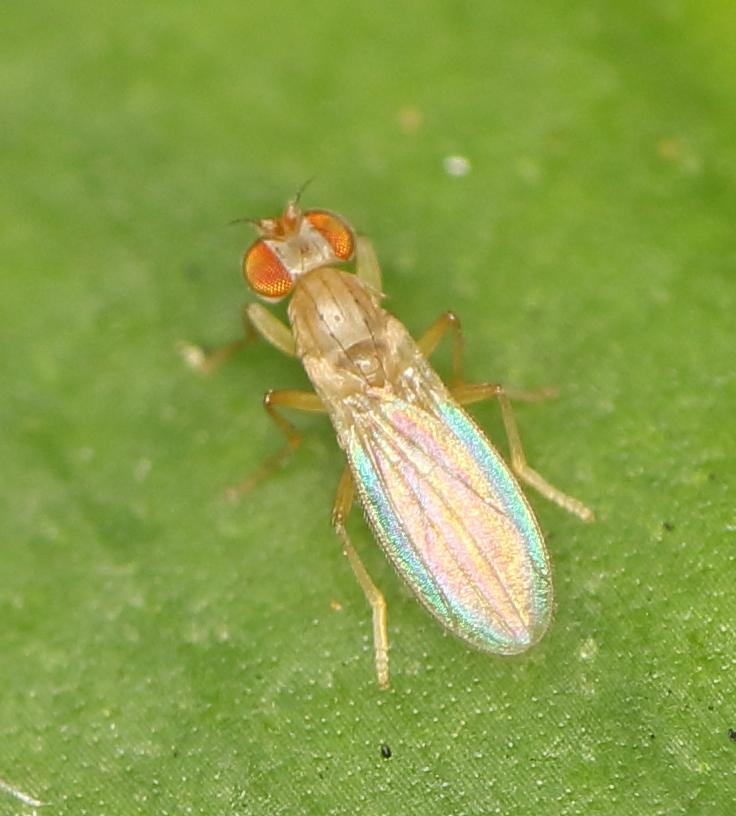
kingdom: Animalia
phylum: Arthropoda
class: Insecta
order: Diptera
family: Periscelididae
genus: Stenomicra
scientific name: Stenomicra stuckenbergi
